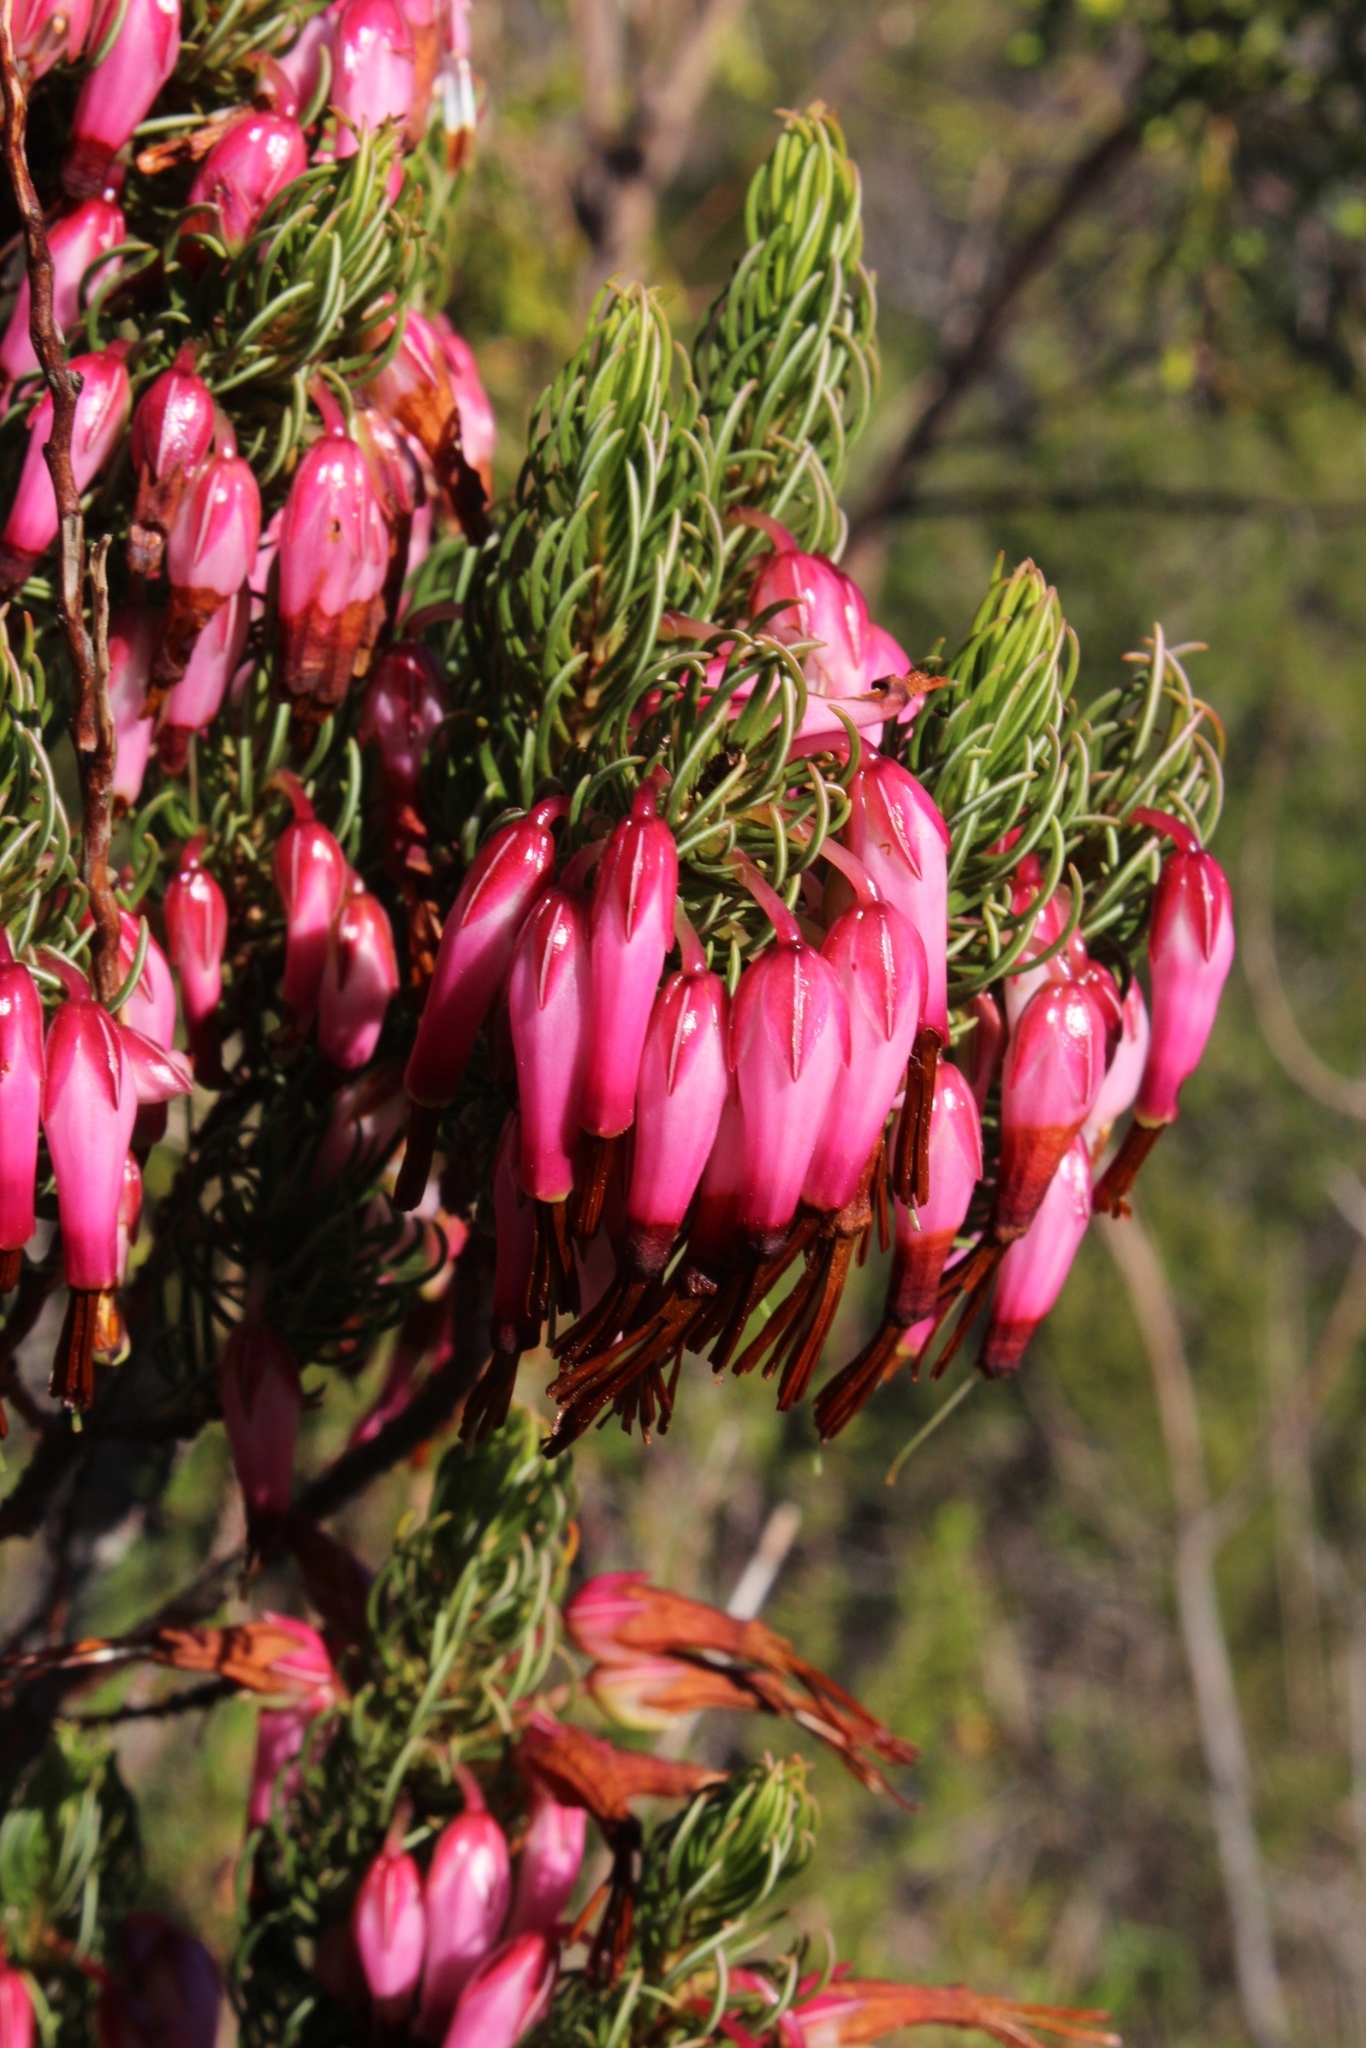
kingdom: Plantae
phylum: Tracheophyta
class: Magnoliopsida
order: Ericales
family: Ericaceae
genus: Erica
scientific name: Erica plukenetii
